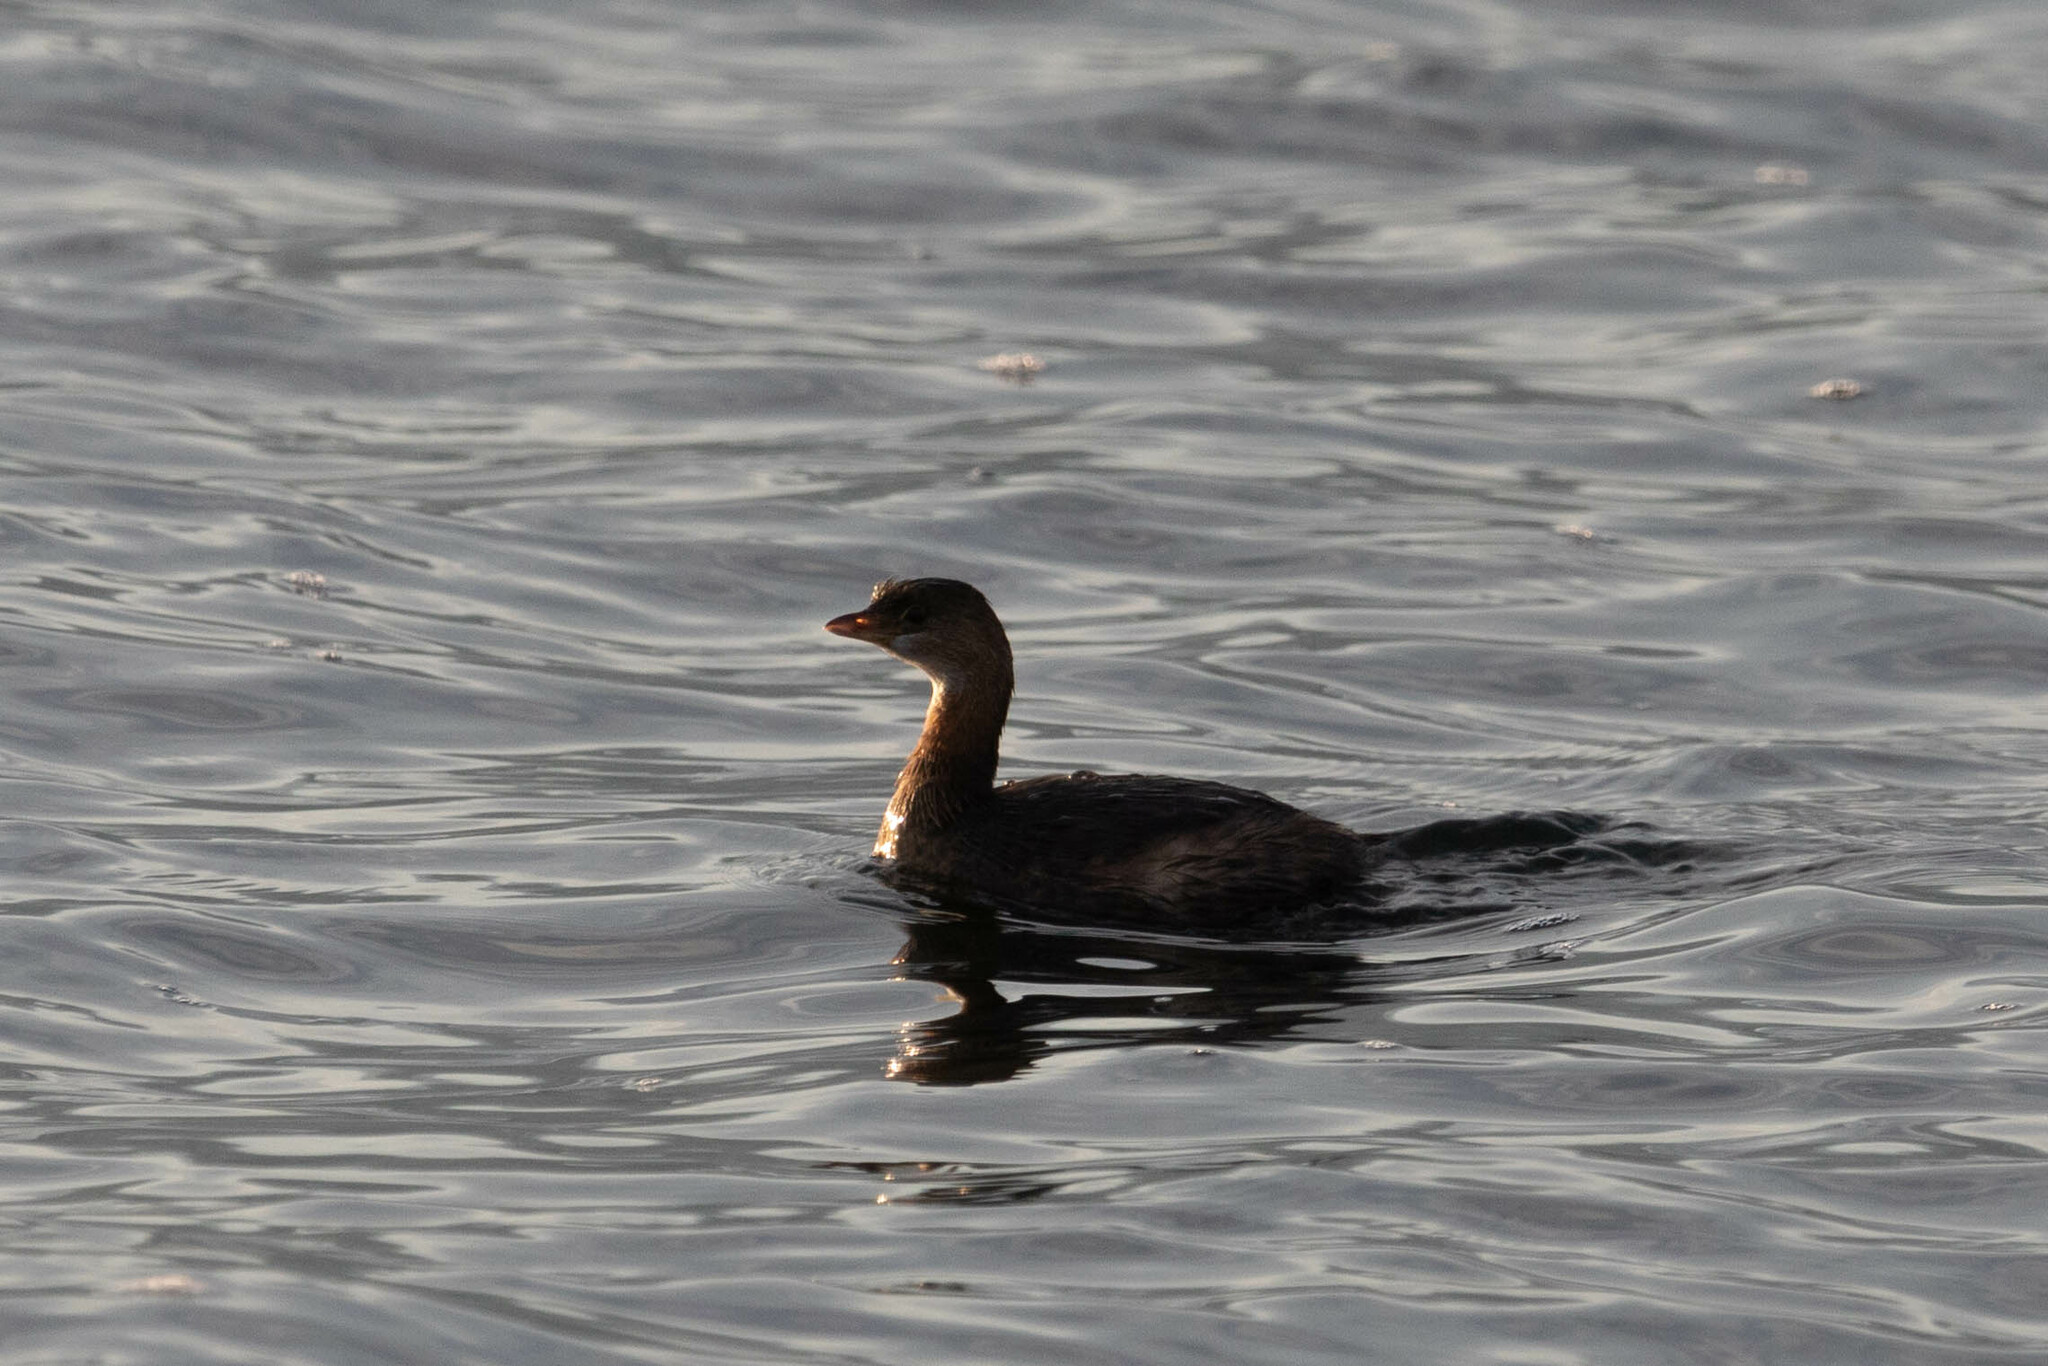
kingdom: Animalia
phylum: Chordata
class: Aves
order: Podicipediformes
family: Podicipedidae
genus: Podilymbus
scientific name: Podilymbus podiceps
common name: Pied-billed grebe
